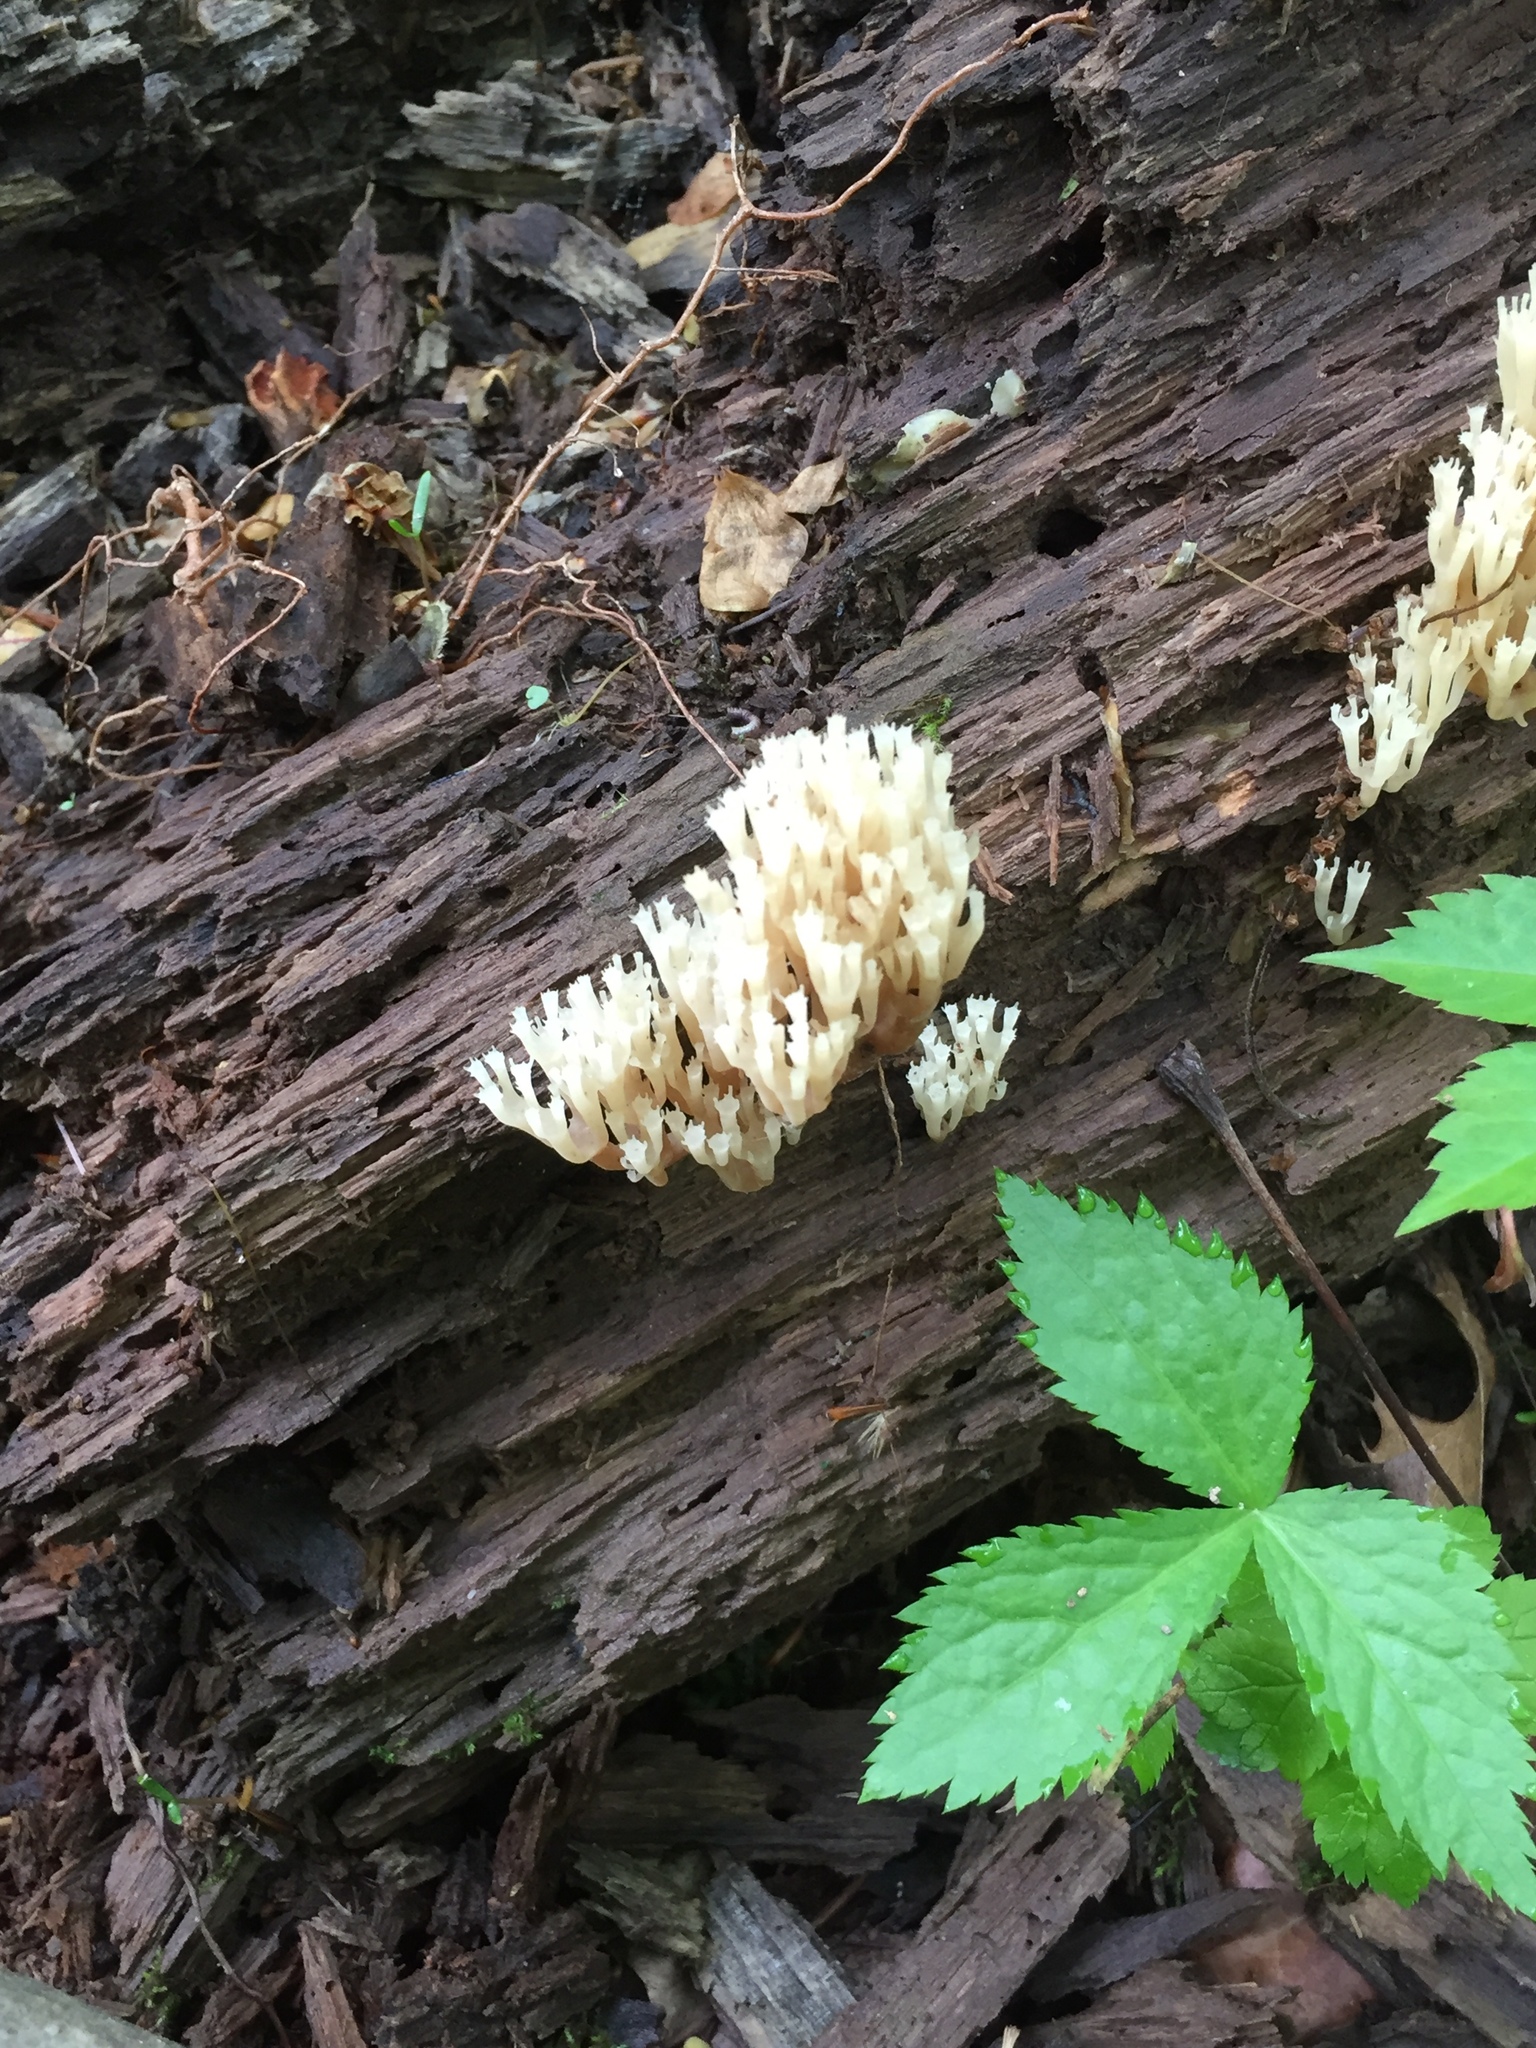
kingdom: Fungi
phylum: Basidiomycota
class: Agaricomycetes
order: Russulales
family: Auriscalpiaceae
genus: Artomyces
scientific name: Artomyces pyxidatus
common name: Crown-tipped coral fungus
